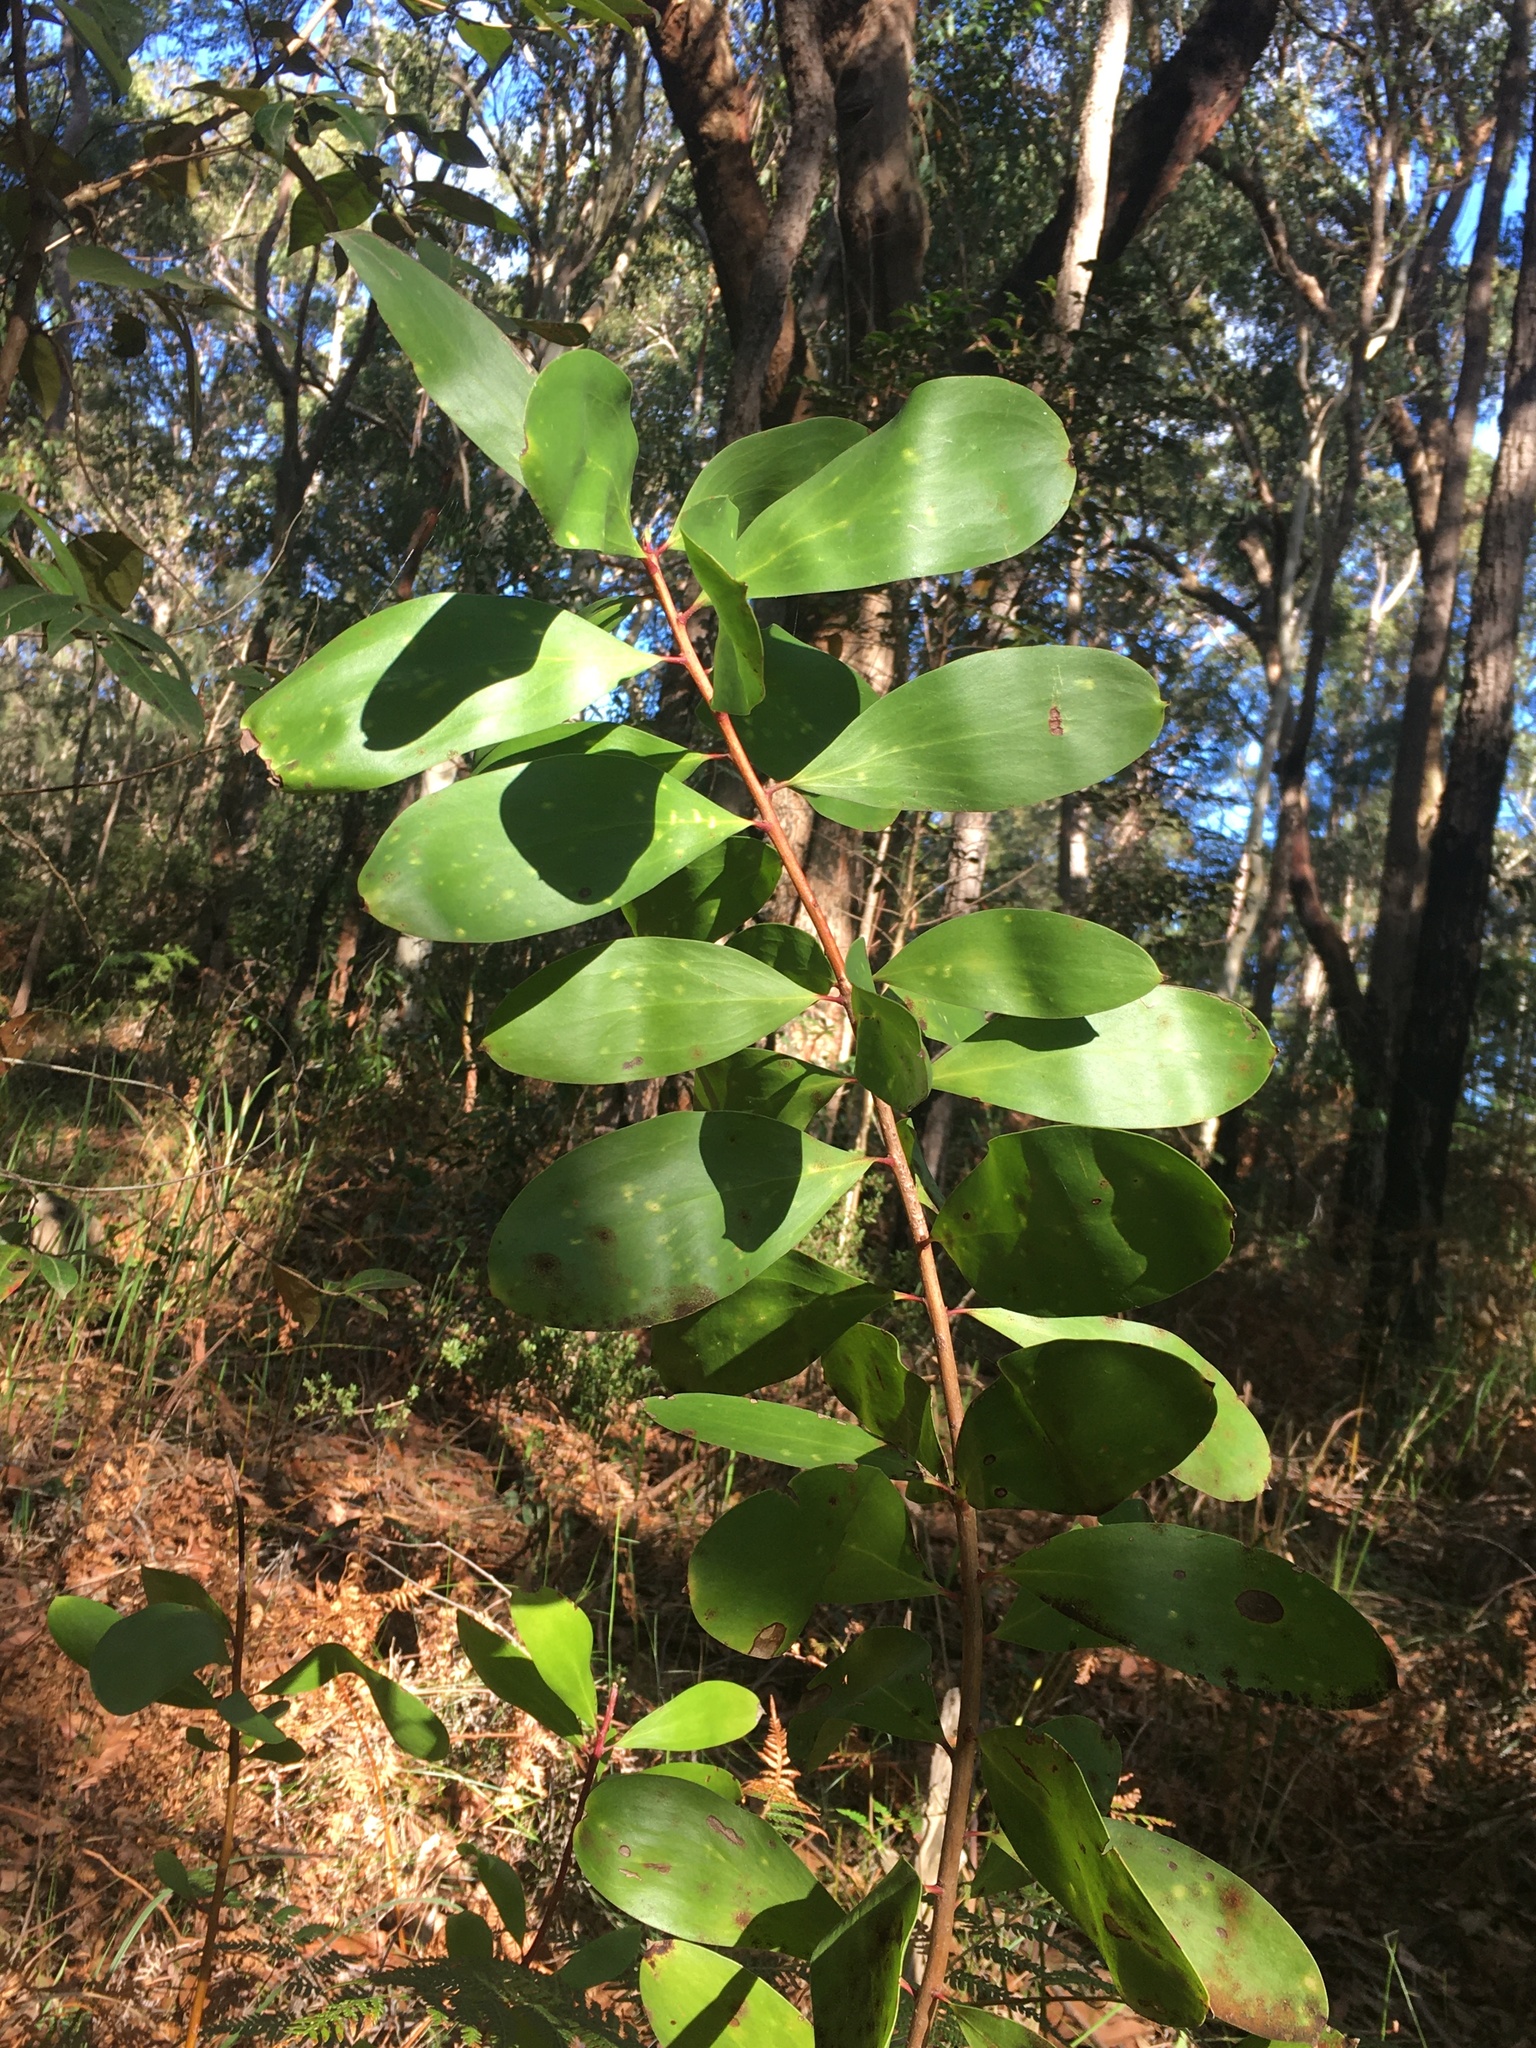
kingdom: Plantae
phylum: Tracheophyta
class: Magnoliopsida
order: Proteales
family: Proteaceae
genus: Persoonia
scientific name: Persoonia levis
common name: Smooth geebung
